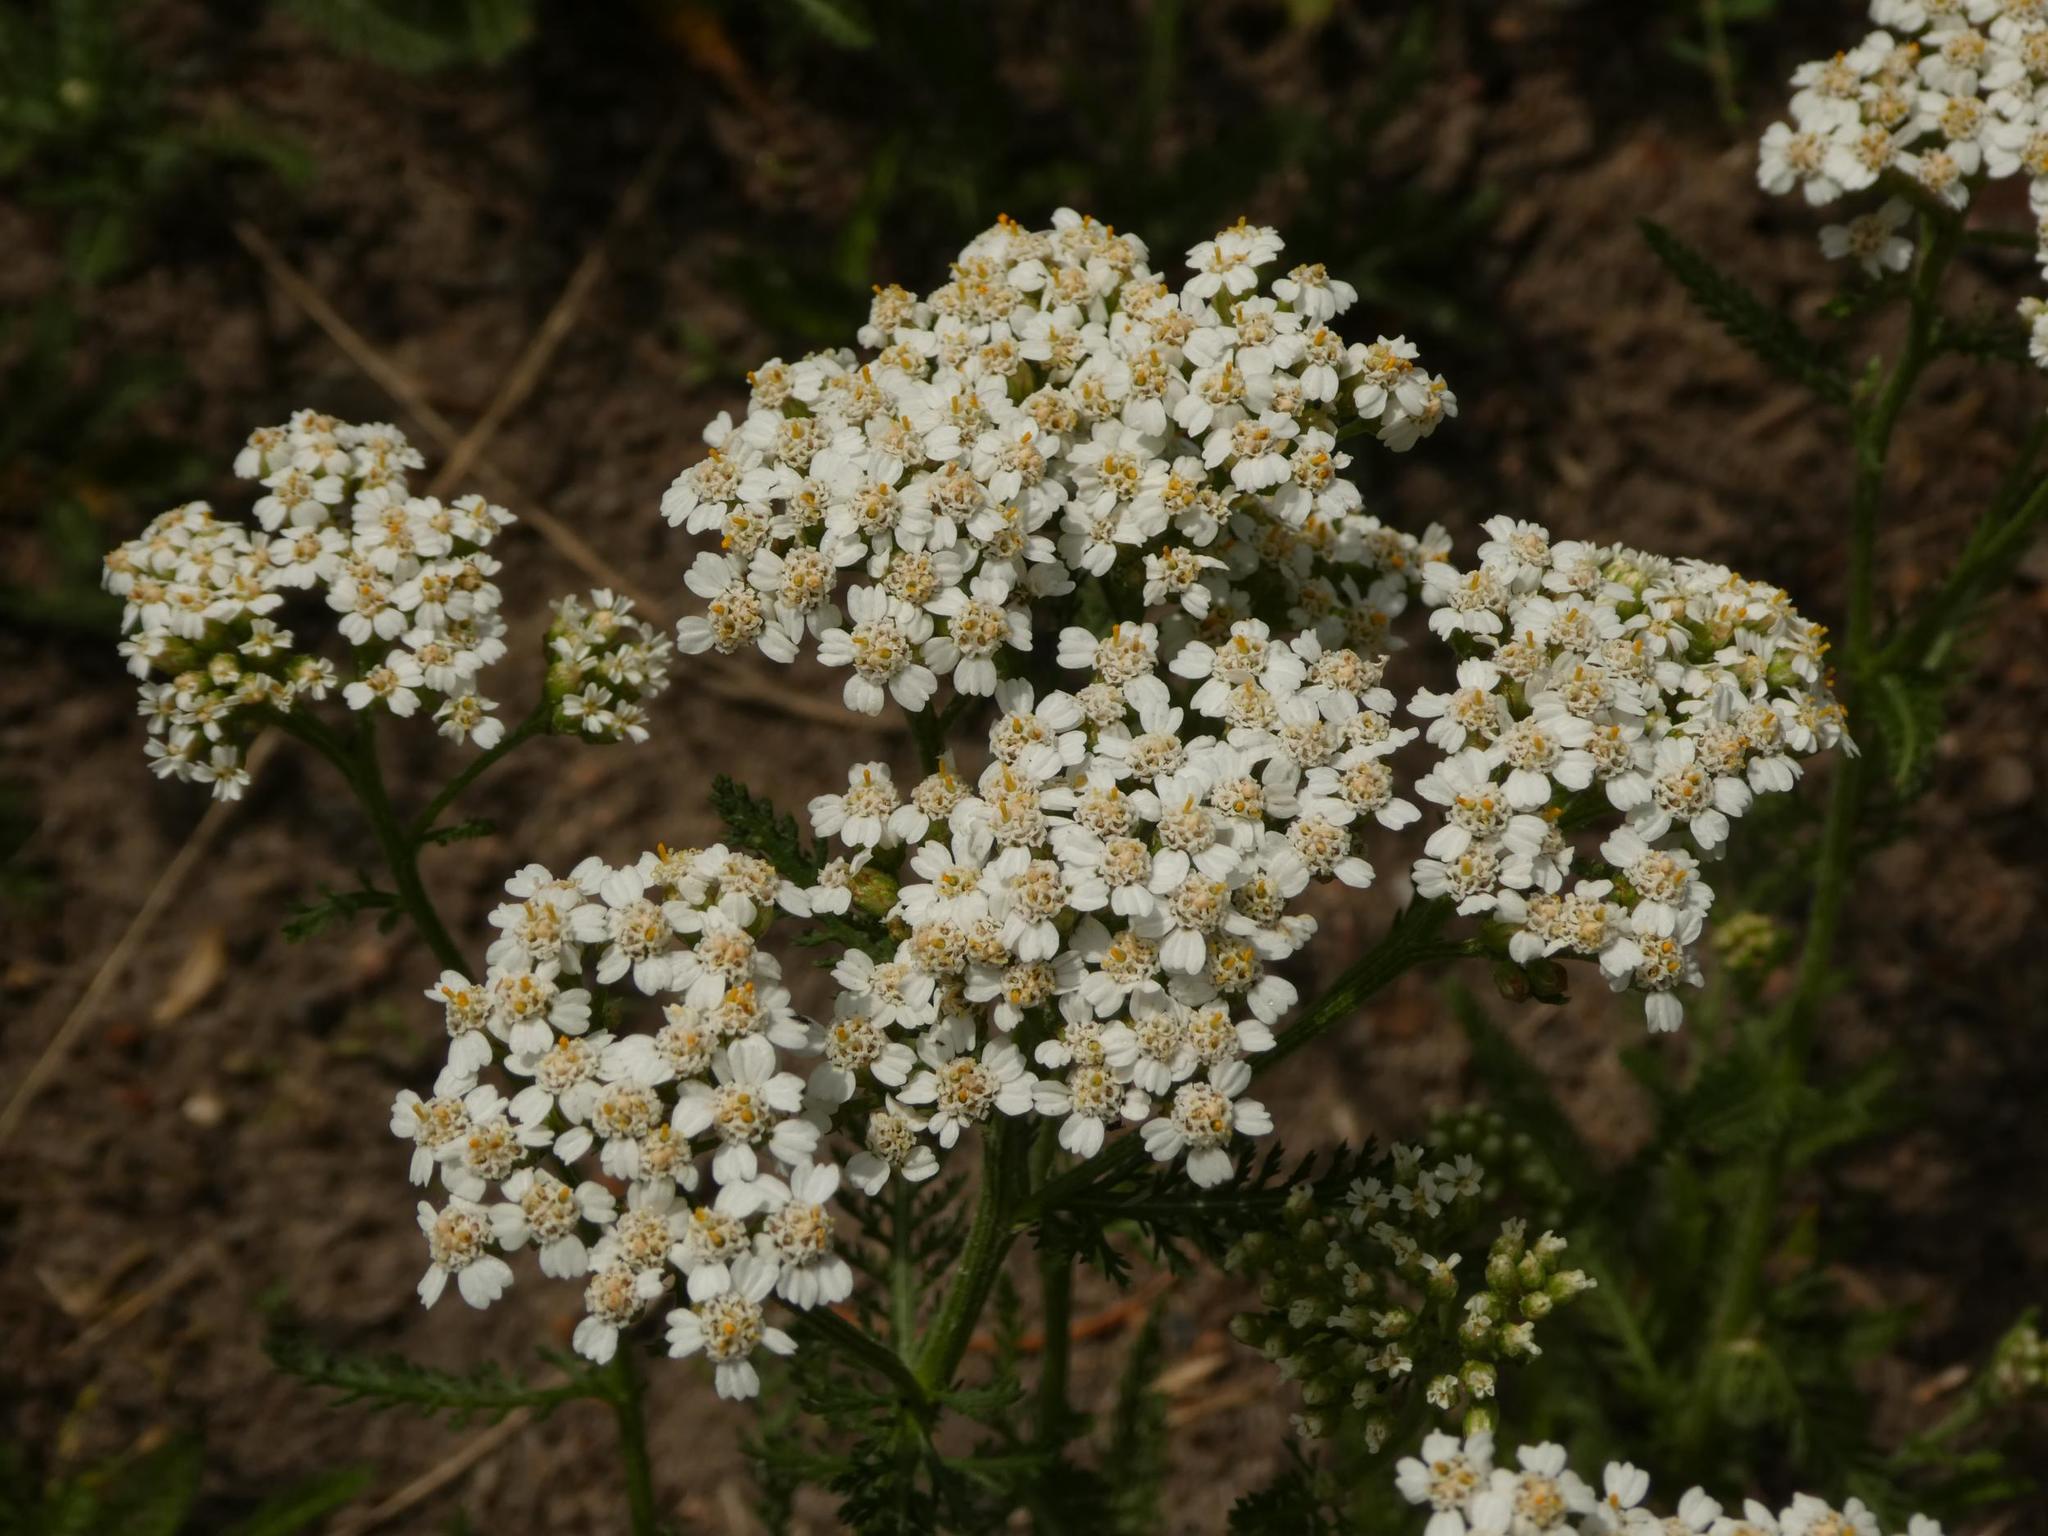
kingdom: Plantae
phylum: Tracheophyta
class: Magnoliopsida
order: Asterales
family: Asteraceae
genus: Achillea
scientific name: Achillea millefolium
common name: Yarrow
